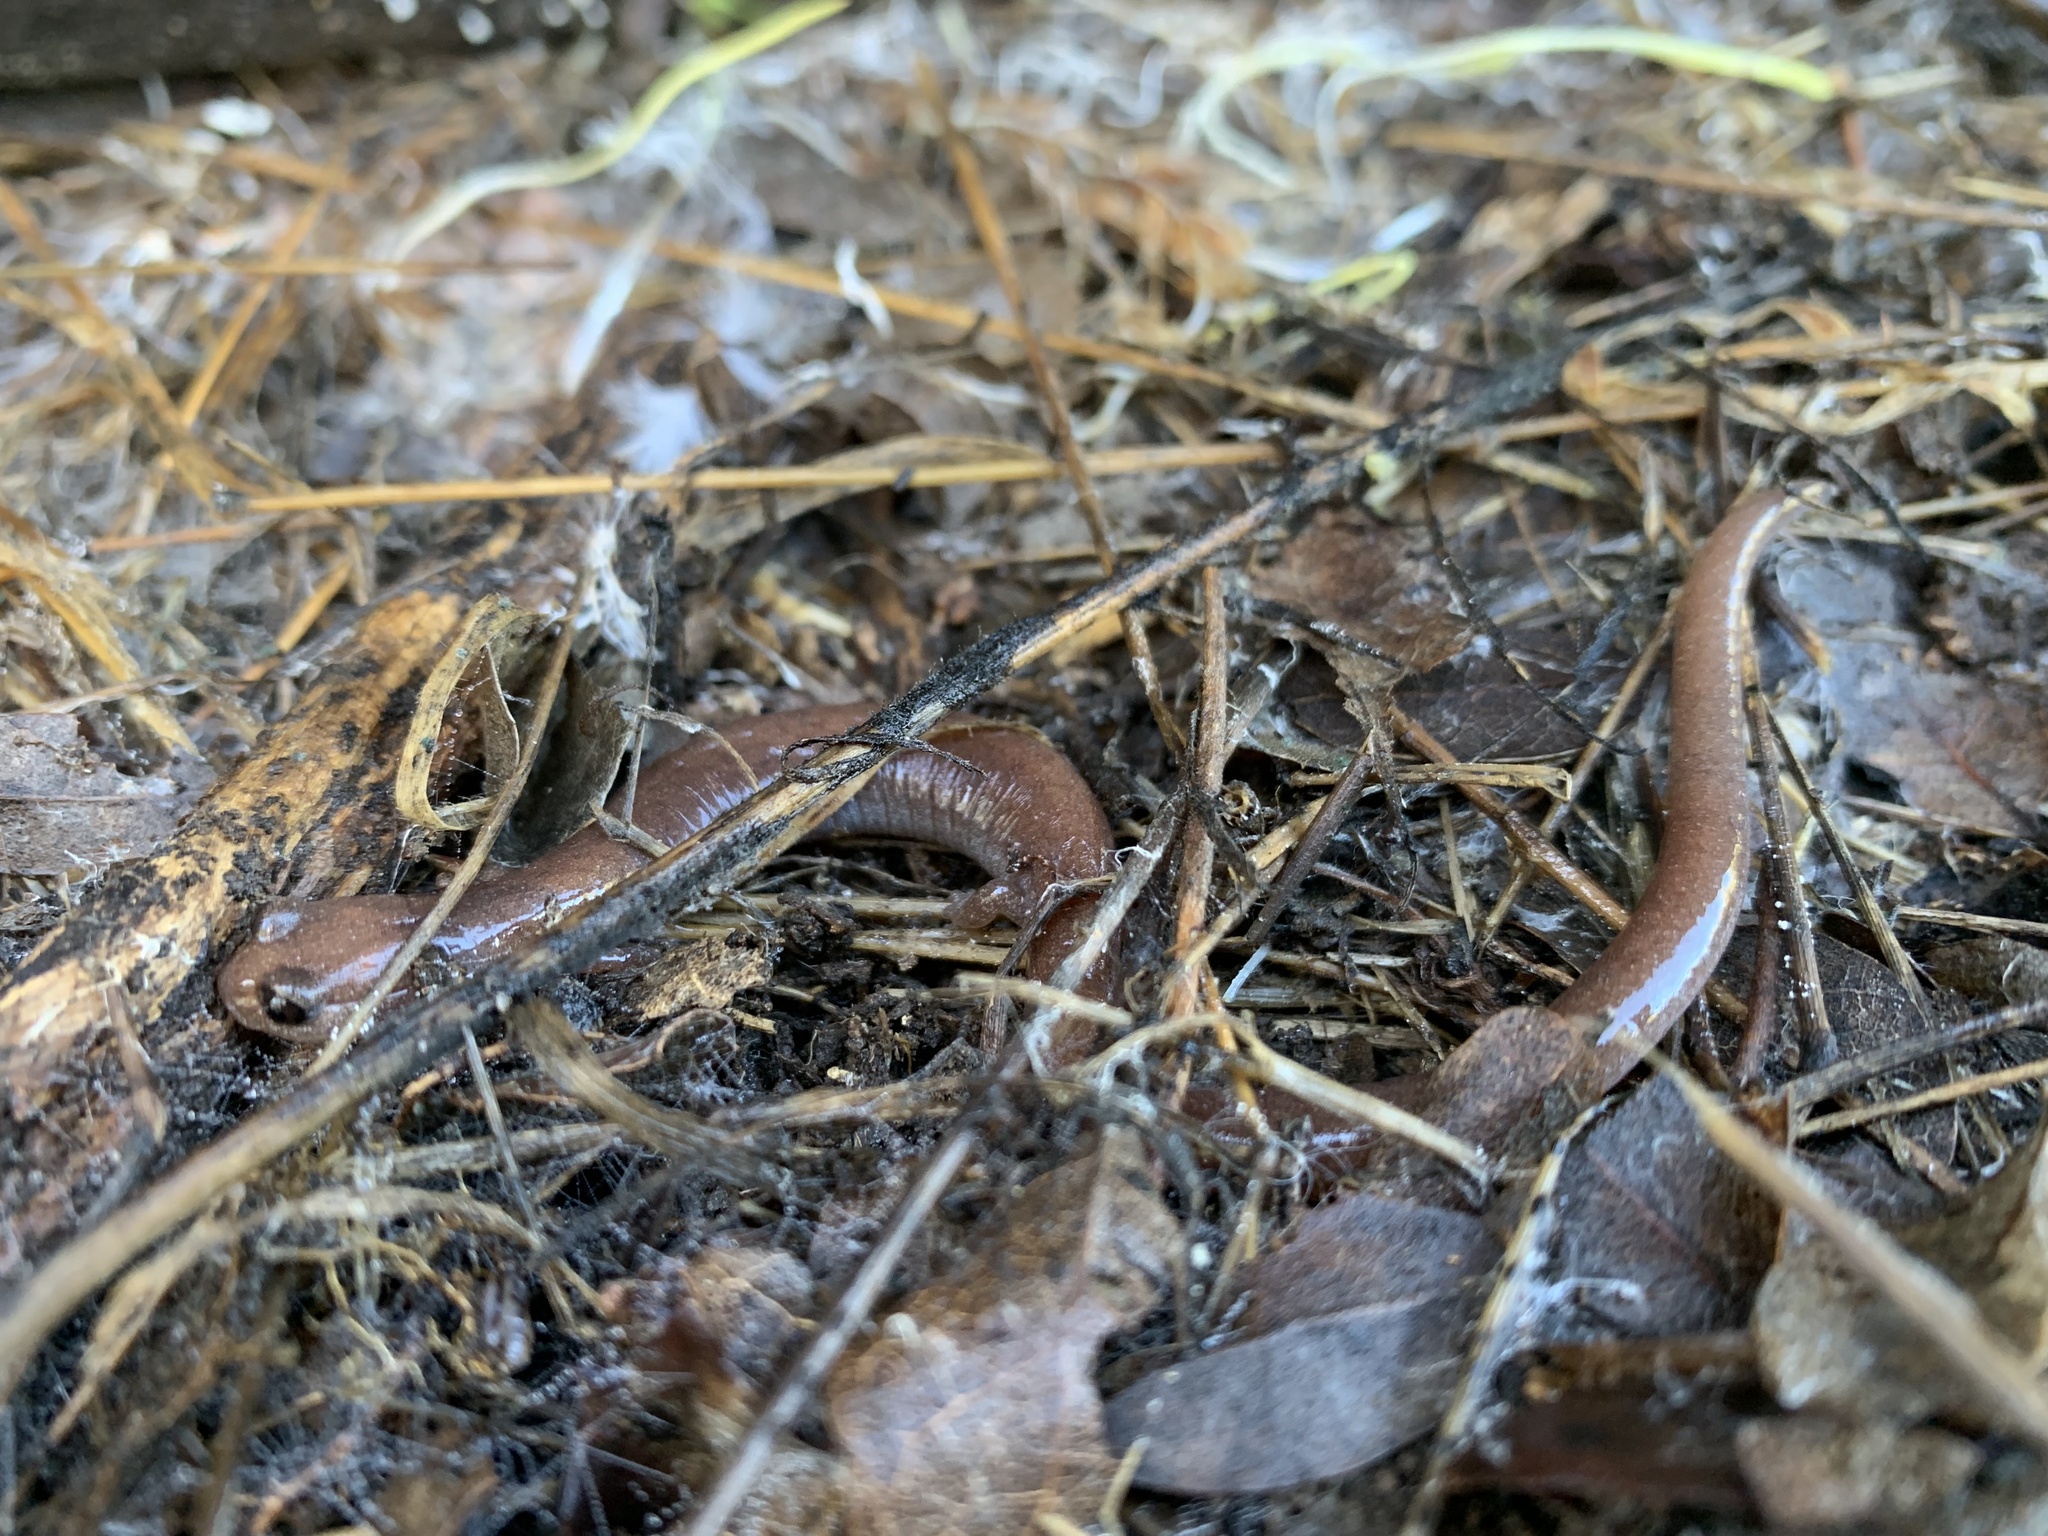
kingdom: Animalia
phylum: Chordata
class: Amphibia
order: Caudata
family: Plethodontidae
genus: Batrachoseps
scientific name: Batrachoseps major
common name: Garden slender salamander
